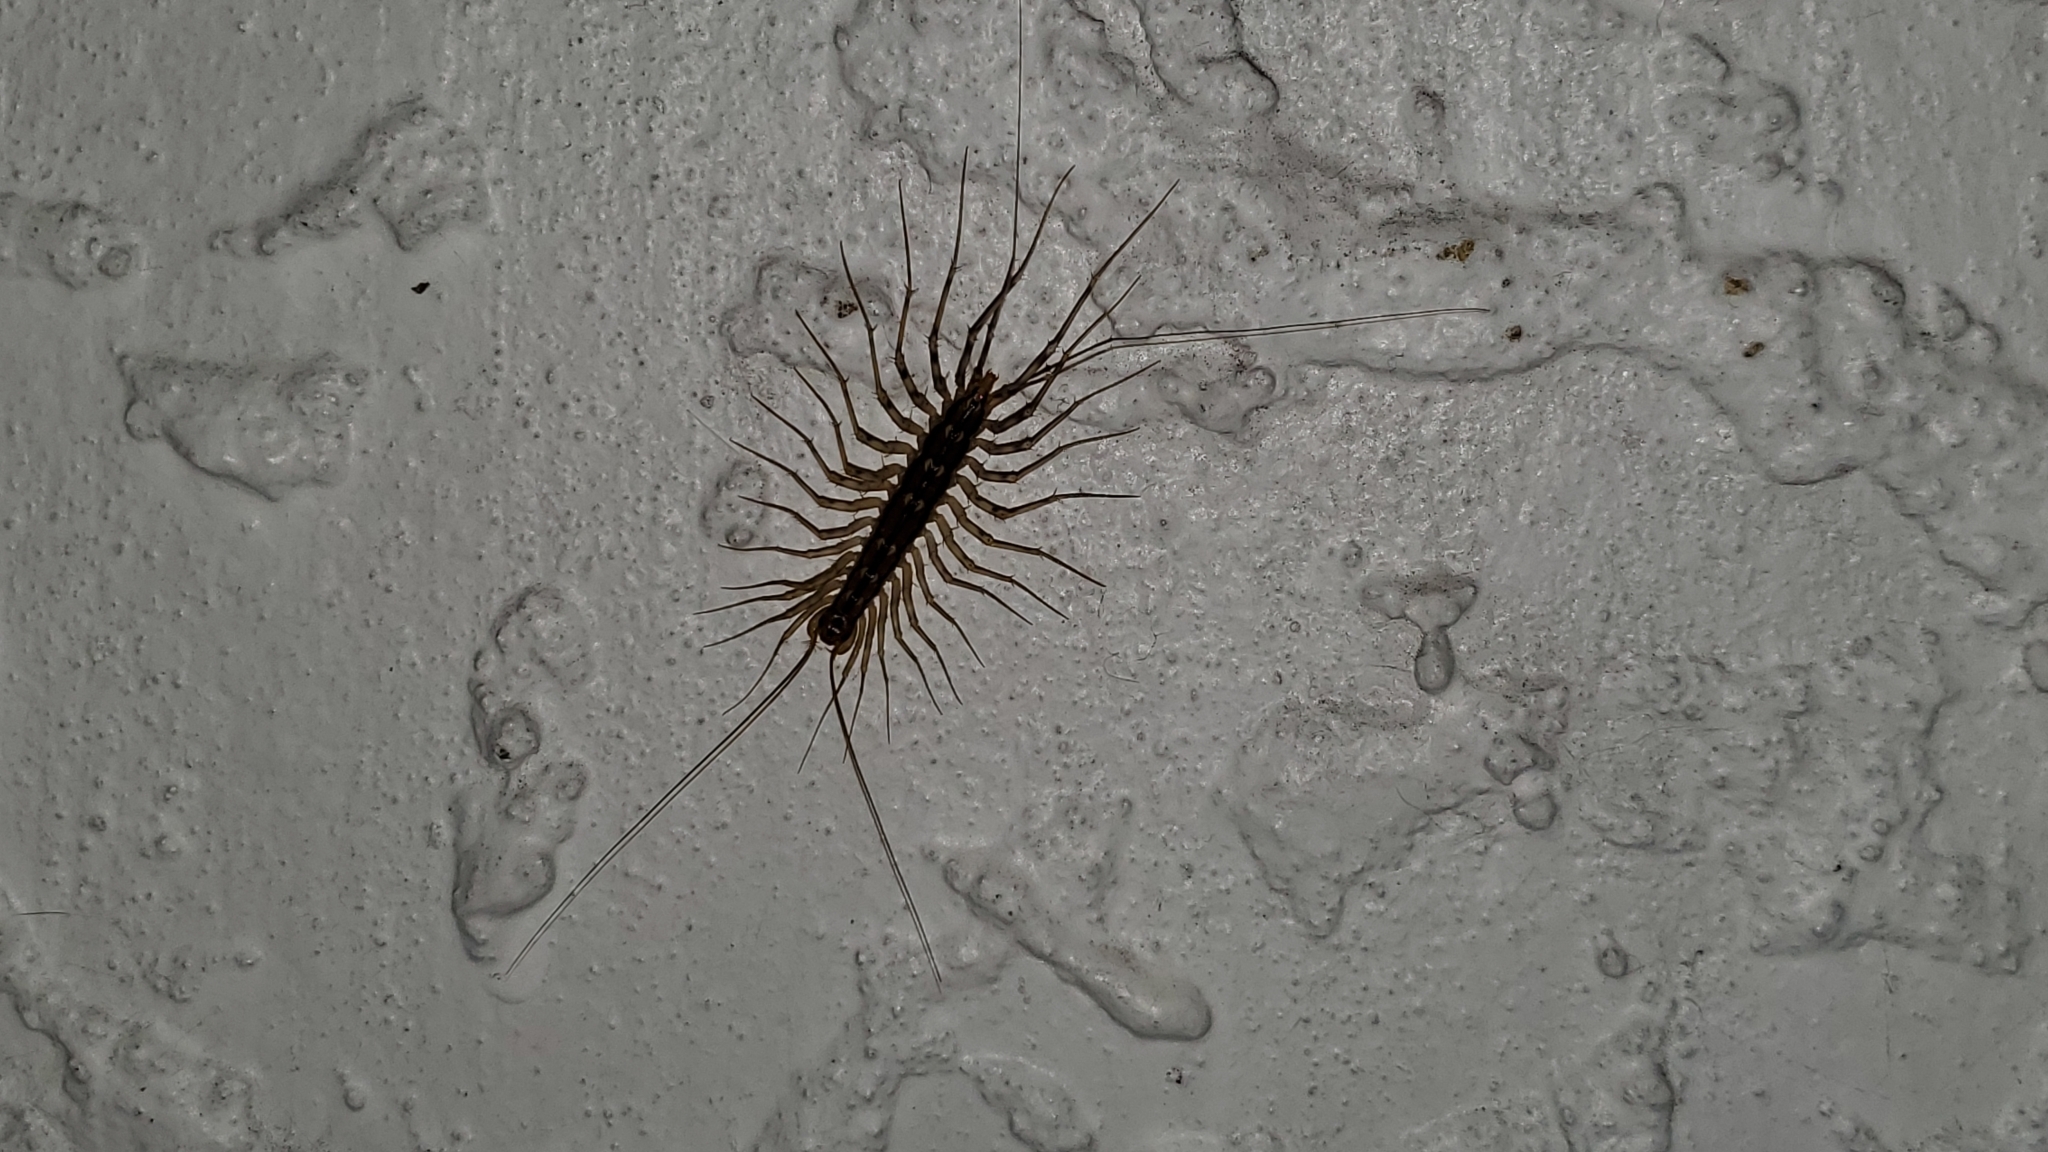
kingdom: Animalia
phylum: Arthropoda
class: Chilopoda
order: Scutigeromorpha
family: Scutigeridae
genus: Scutigera
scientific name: Scutigera coleoptrata
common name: House centipede
